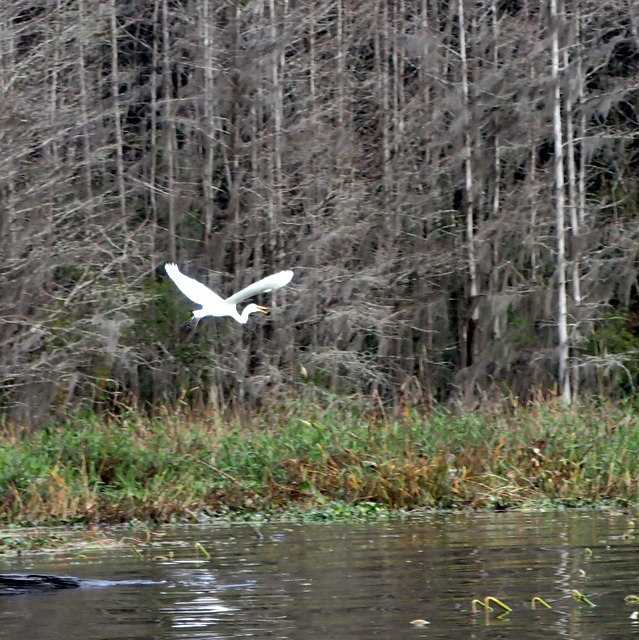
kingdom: Animalia
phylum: Chordata
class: Aves
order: Pelecaniformes
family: Ardeidae
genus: Ardea
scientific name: Ardea alba
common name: Great egret
